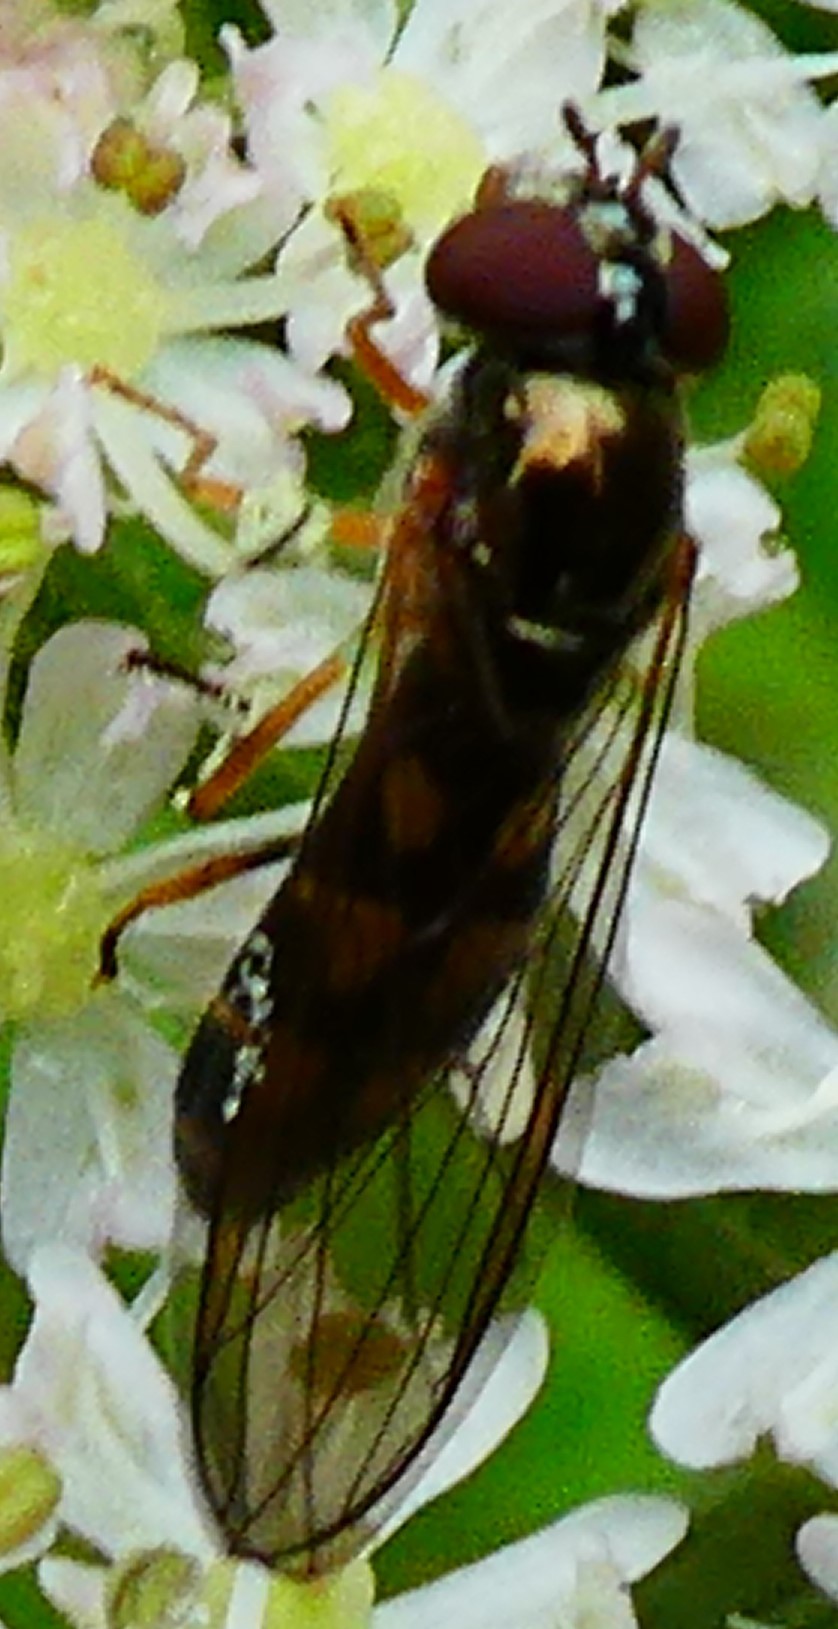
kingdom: Animalia
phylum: Arthropoda
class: Insecta
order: Diptera
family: Syrphidae
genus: Melanostoma
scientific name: Melanostoma
